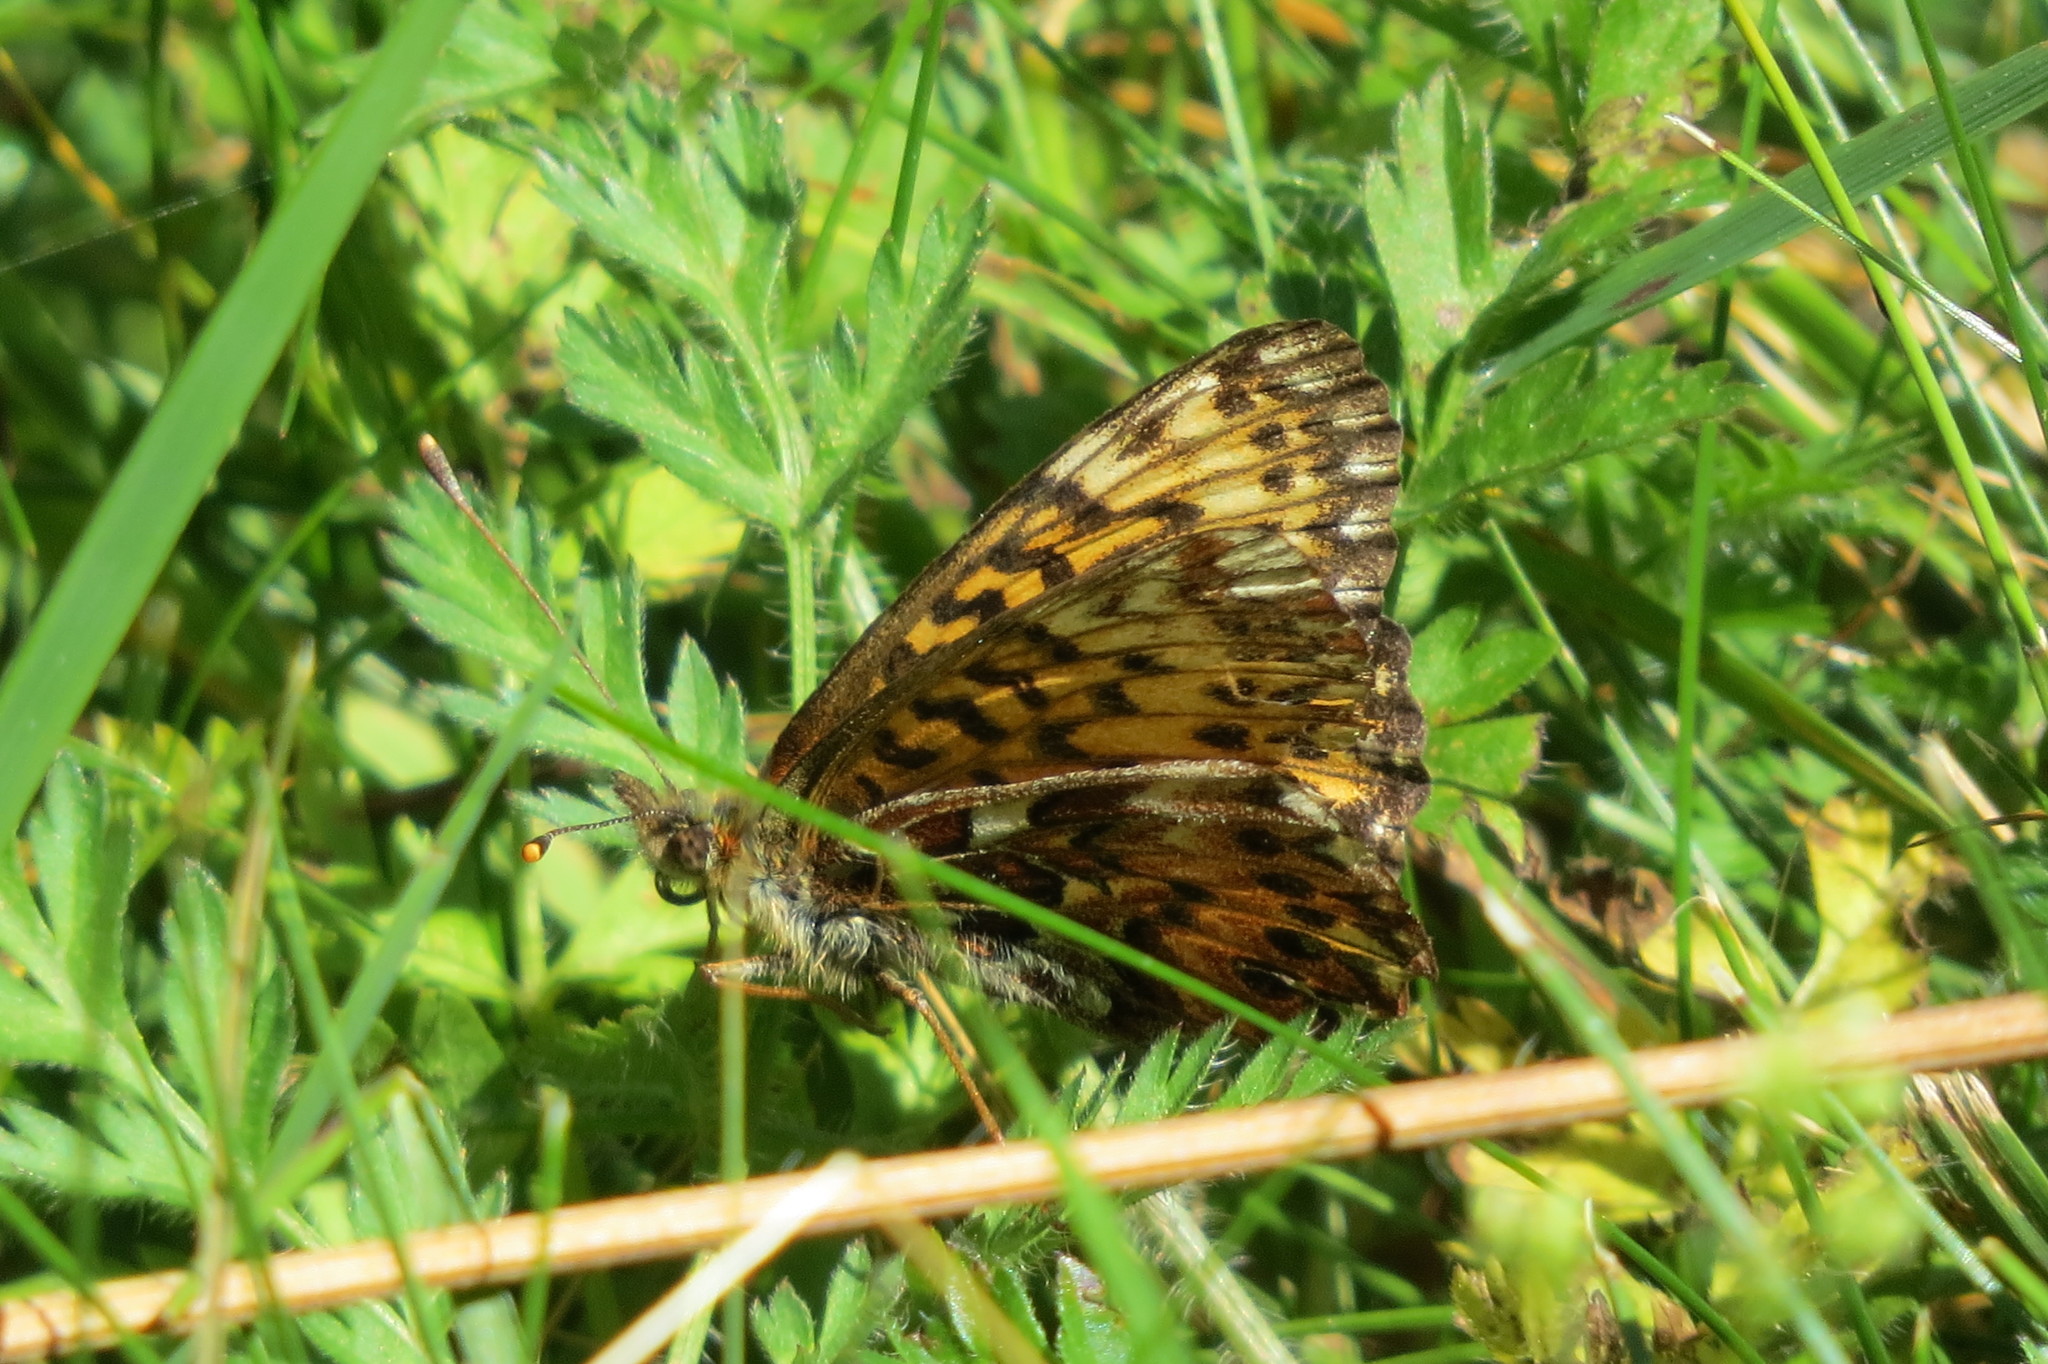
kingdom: Animalia
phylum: Arthropoda
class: Insecta
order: Lepidoptera
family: Nymphalidae
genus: Boloria
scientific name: Boloria titania
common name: Titania's fritillary
